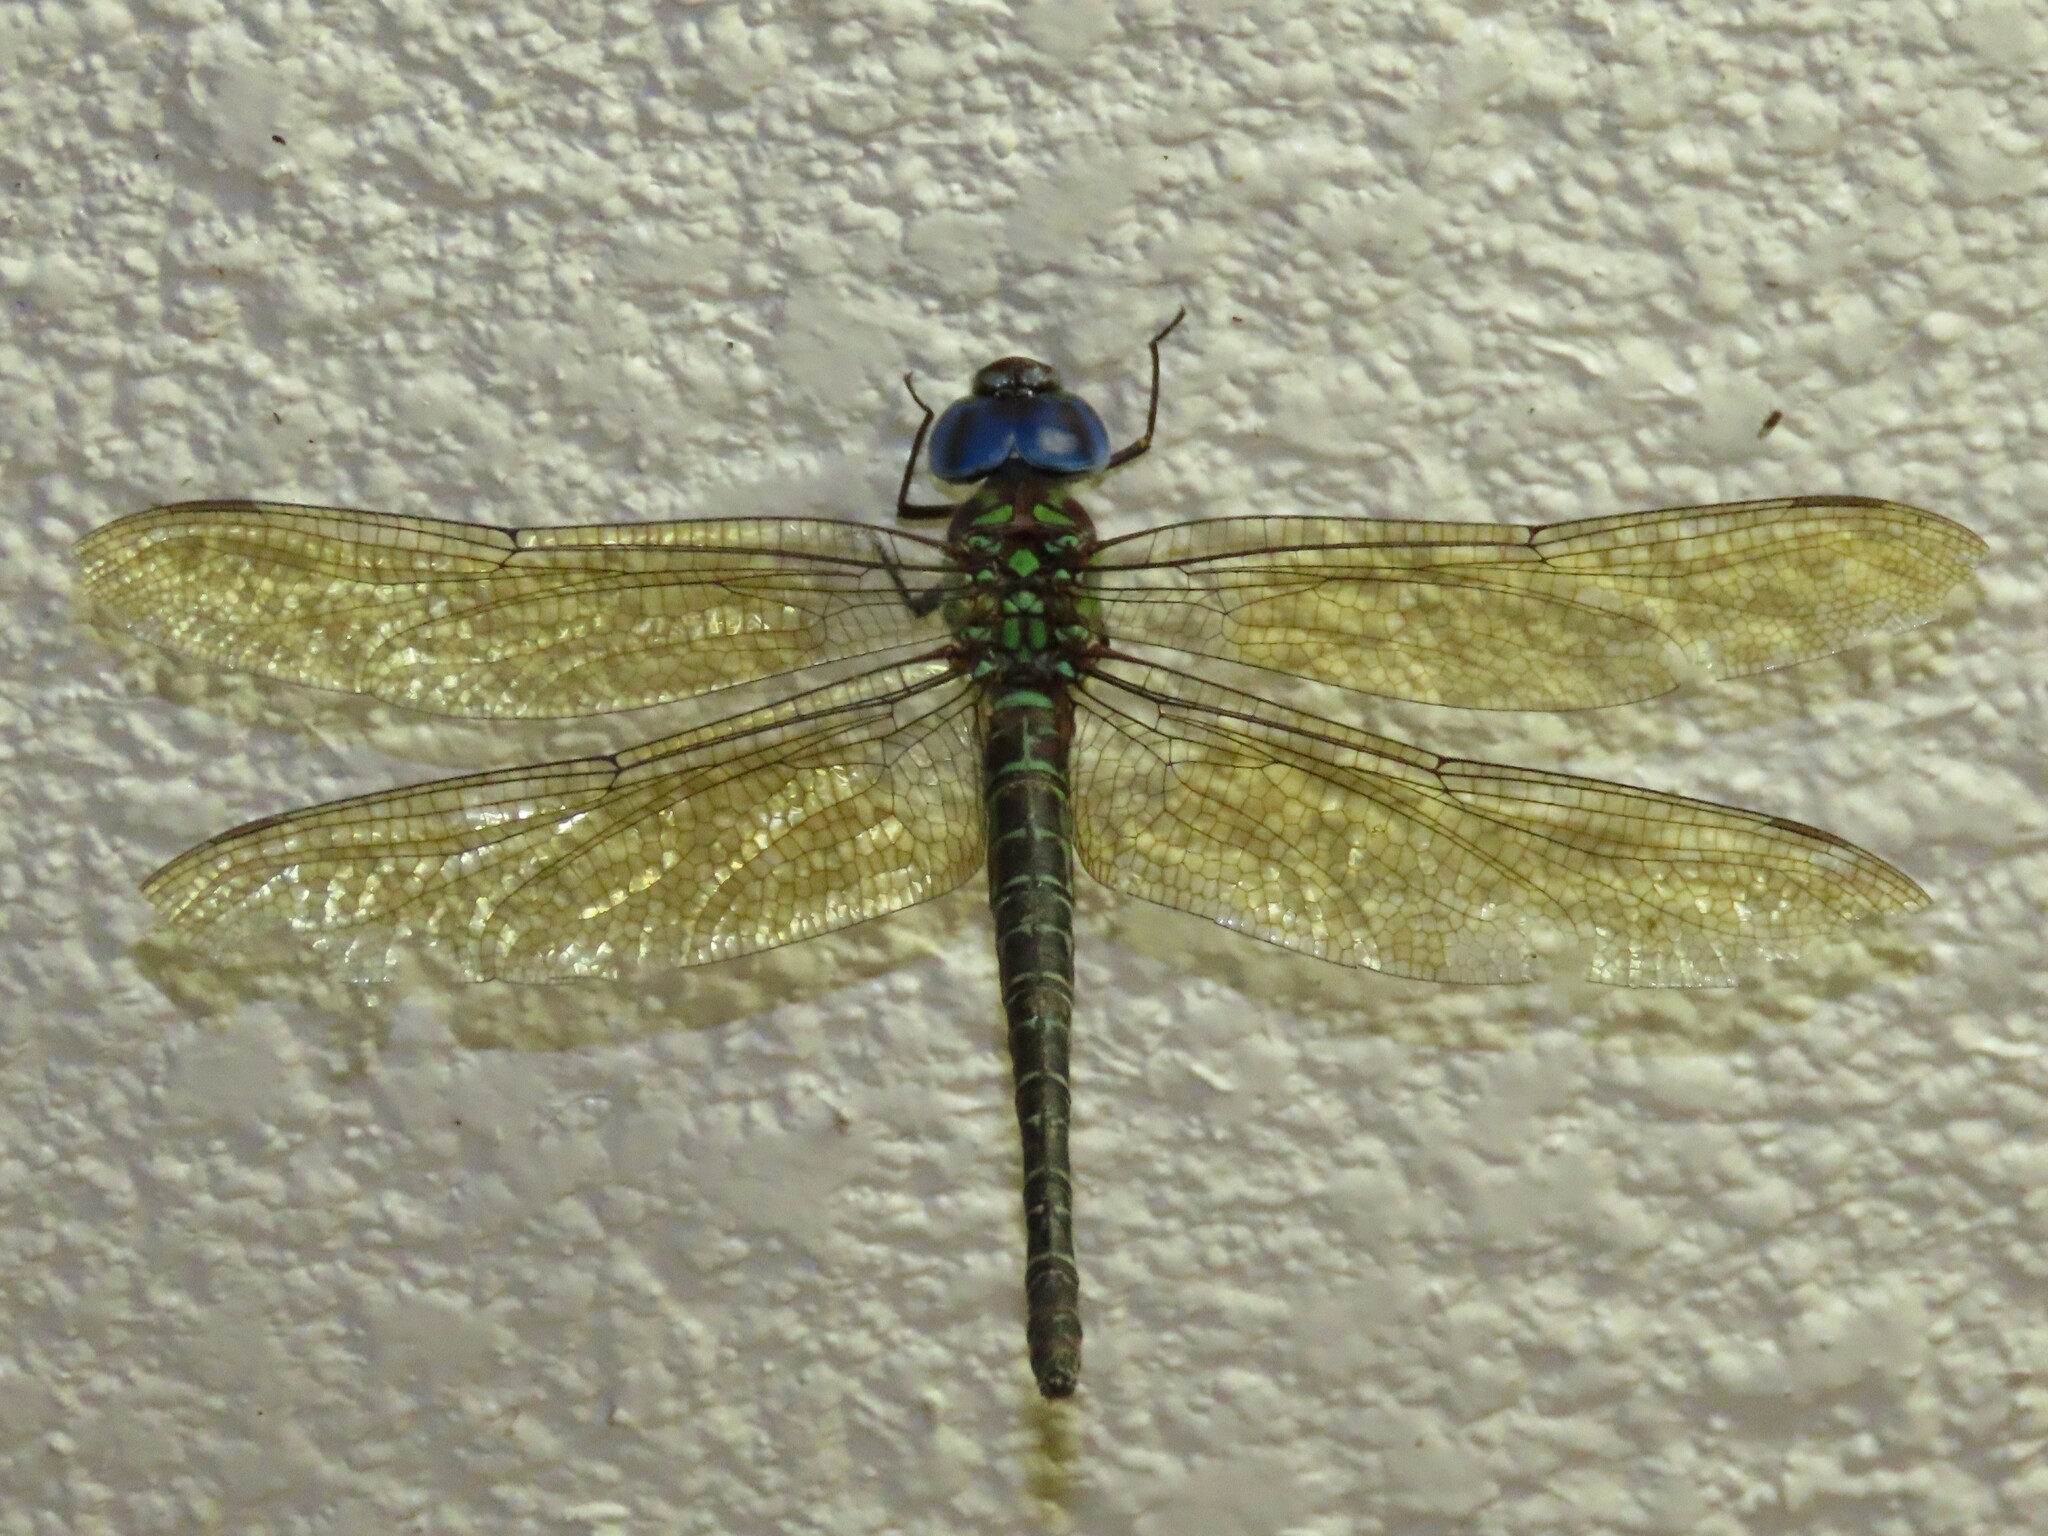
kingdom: Animalia
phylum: Arthropoda
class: Insecta
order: Odonata
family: Aeshnidae
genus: Coryphaeschna
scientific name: Coryphaeschna ingens
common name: Regal darner
